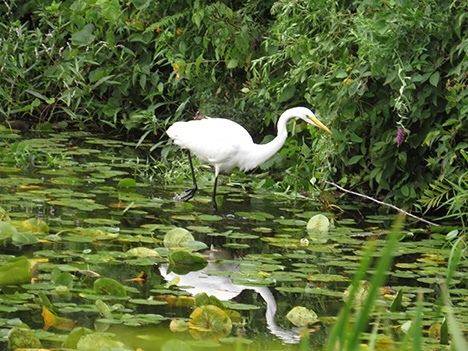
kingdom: Animalia
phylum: Chordata
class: Aves
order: Pelecaniformes
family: Ardeidae
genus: Ardea
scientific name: Ardea alba
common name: Great egret
